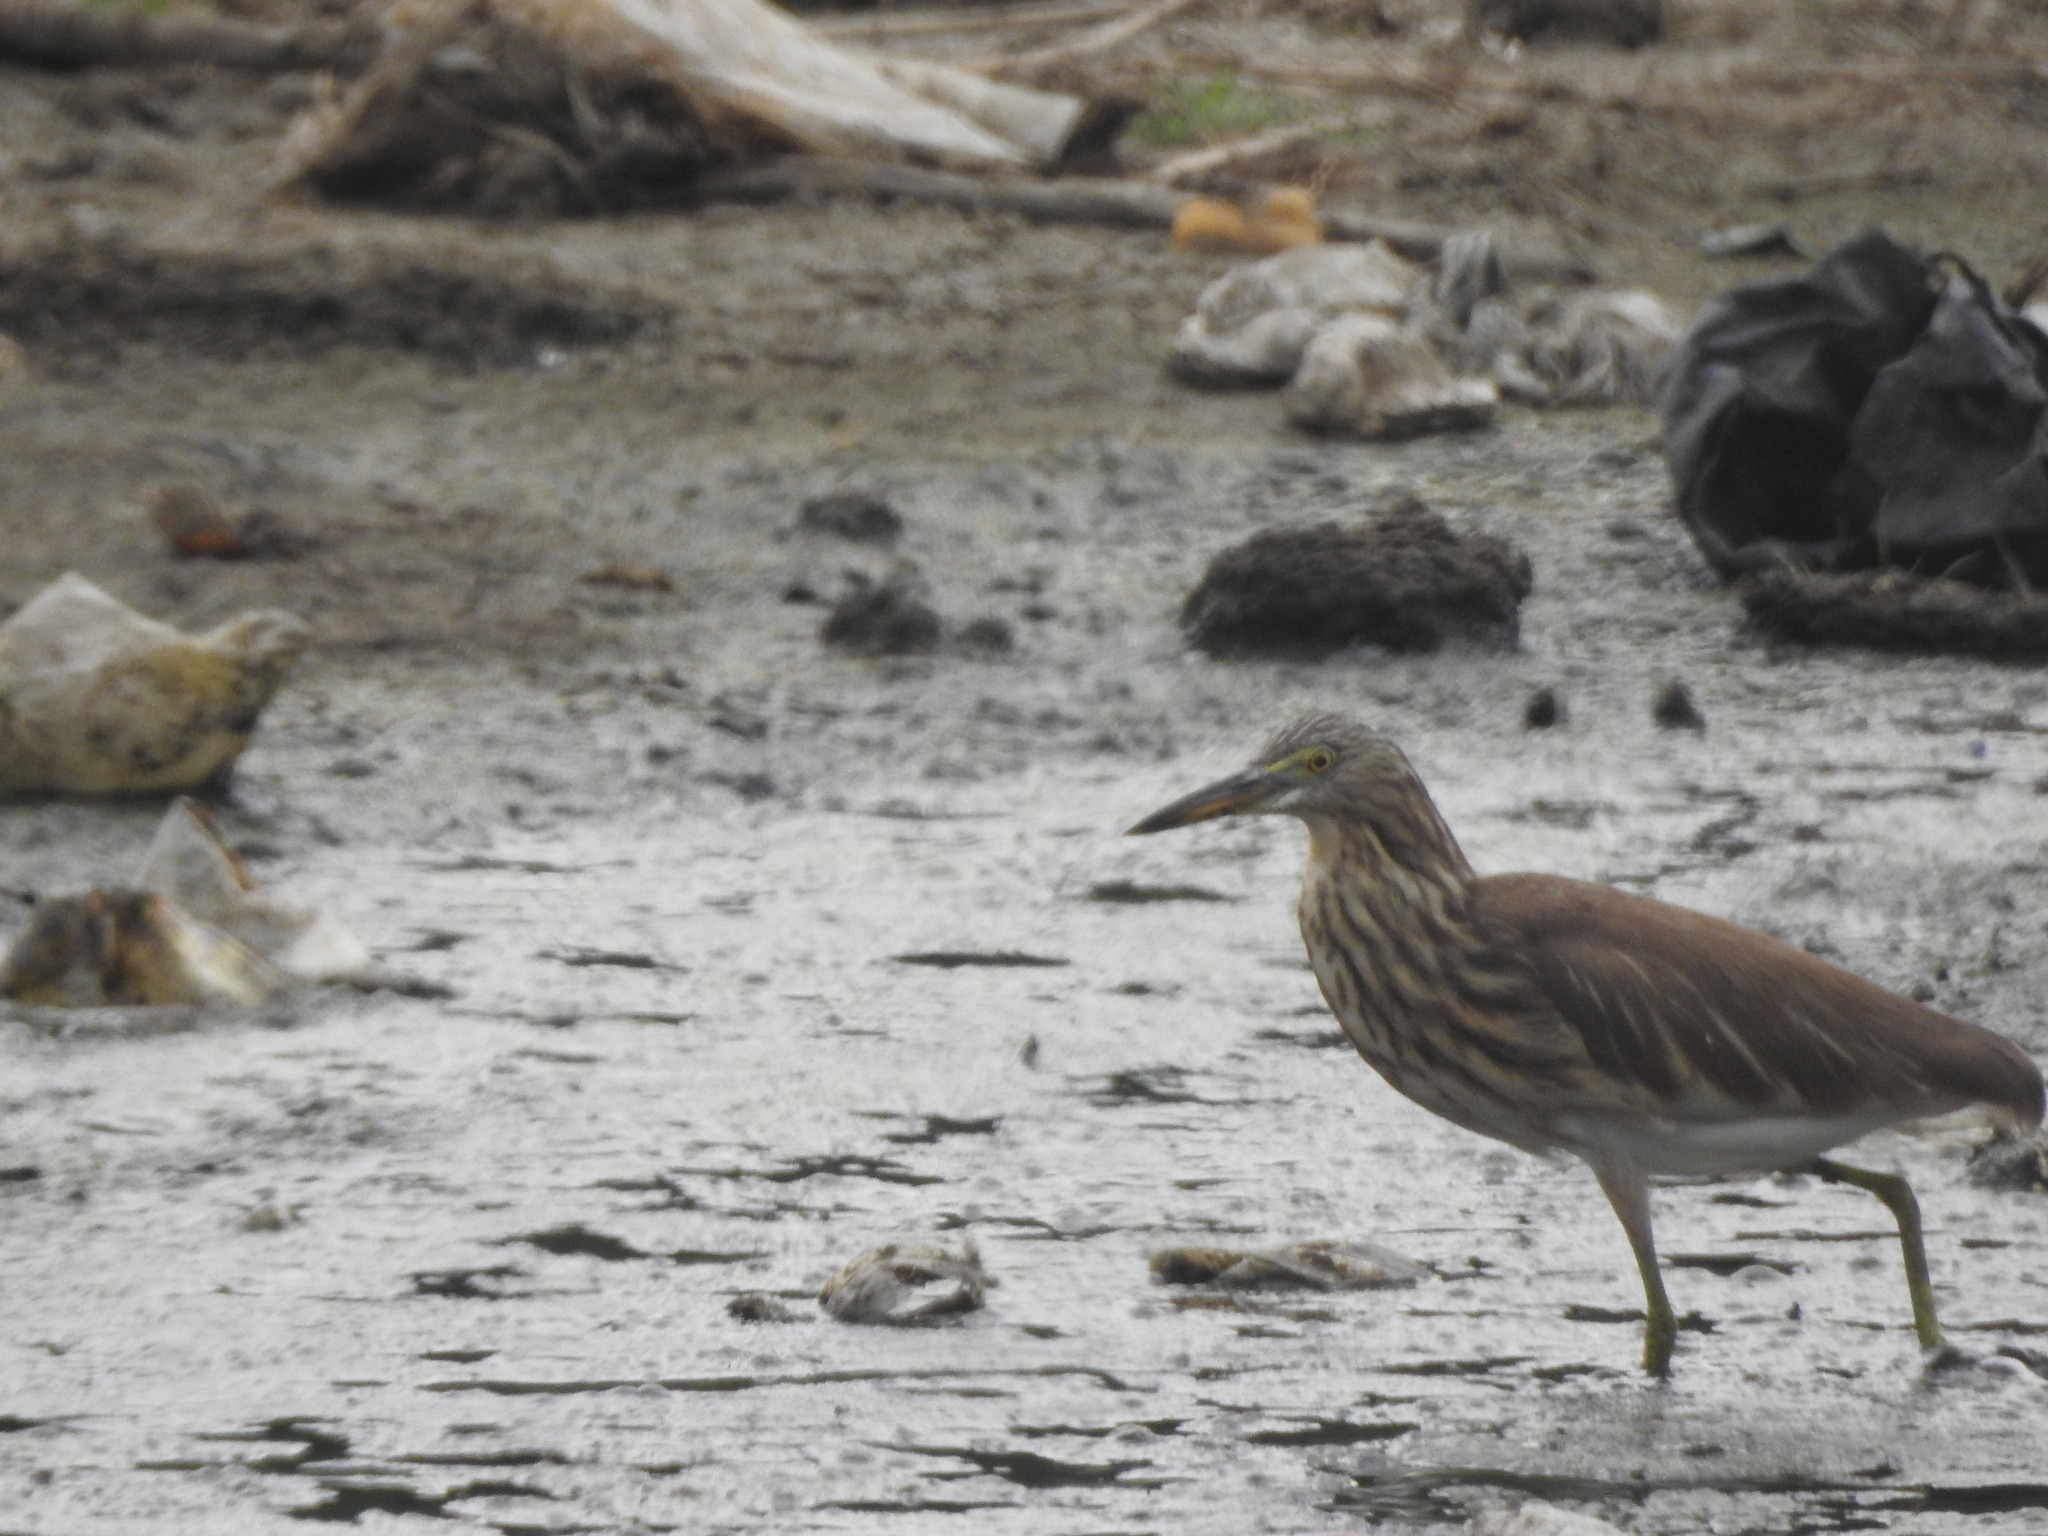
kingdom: Animalia
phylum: Chordata
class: Aves
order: Pelecaniformes
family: Ardeidae
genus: Ardeola
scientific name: Ardeola grayii
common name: Indian pond heron
